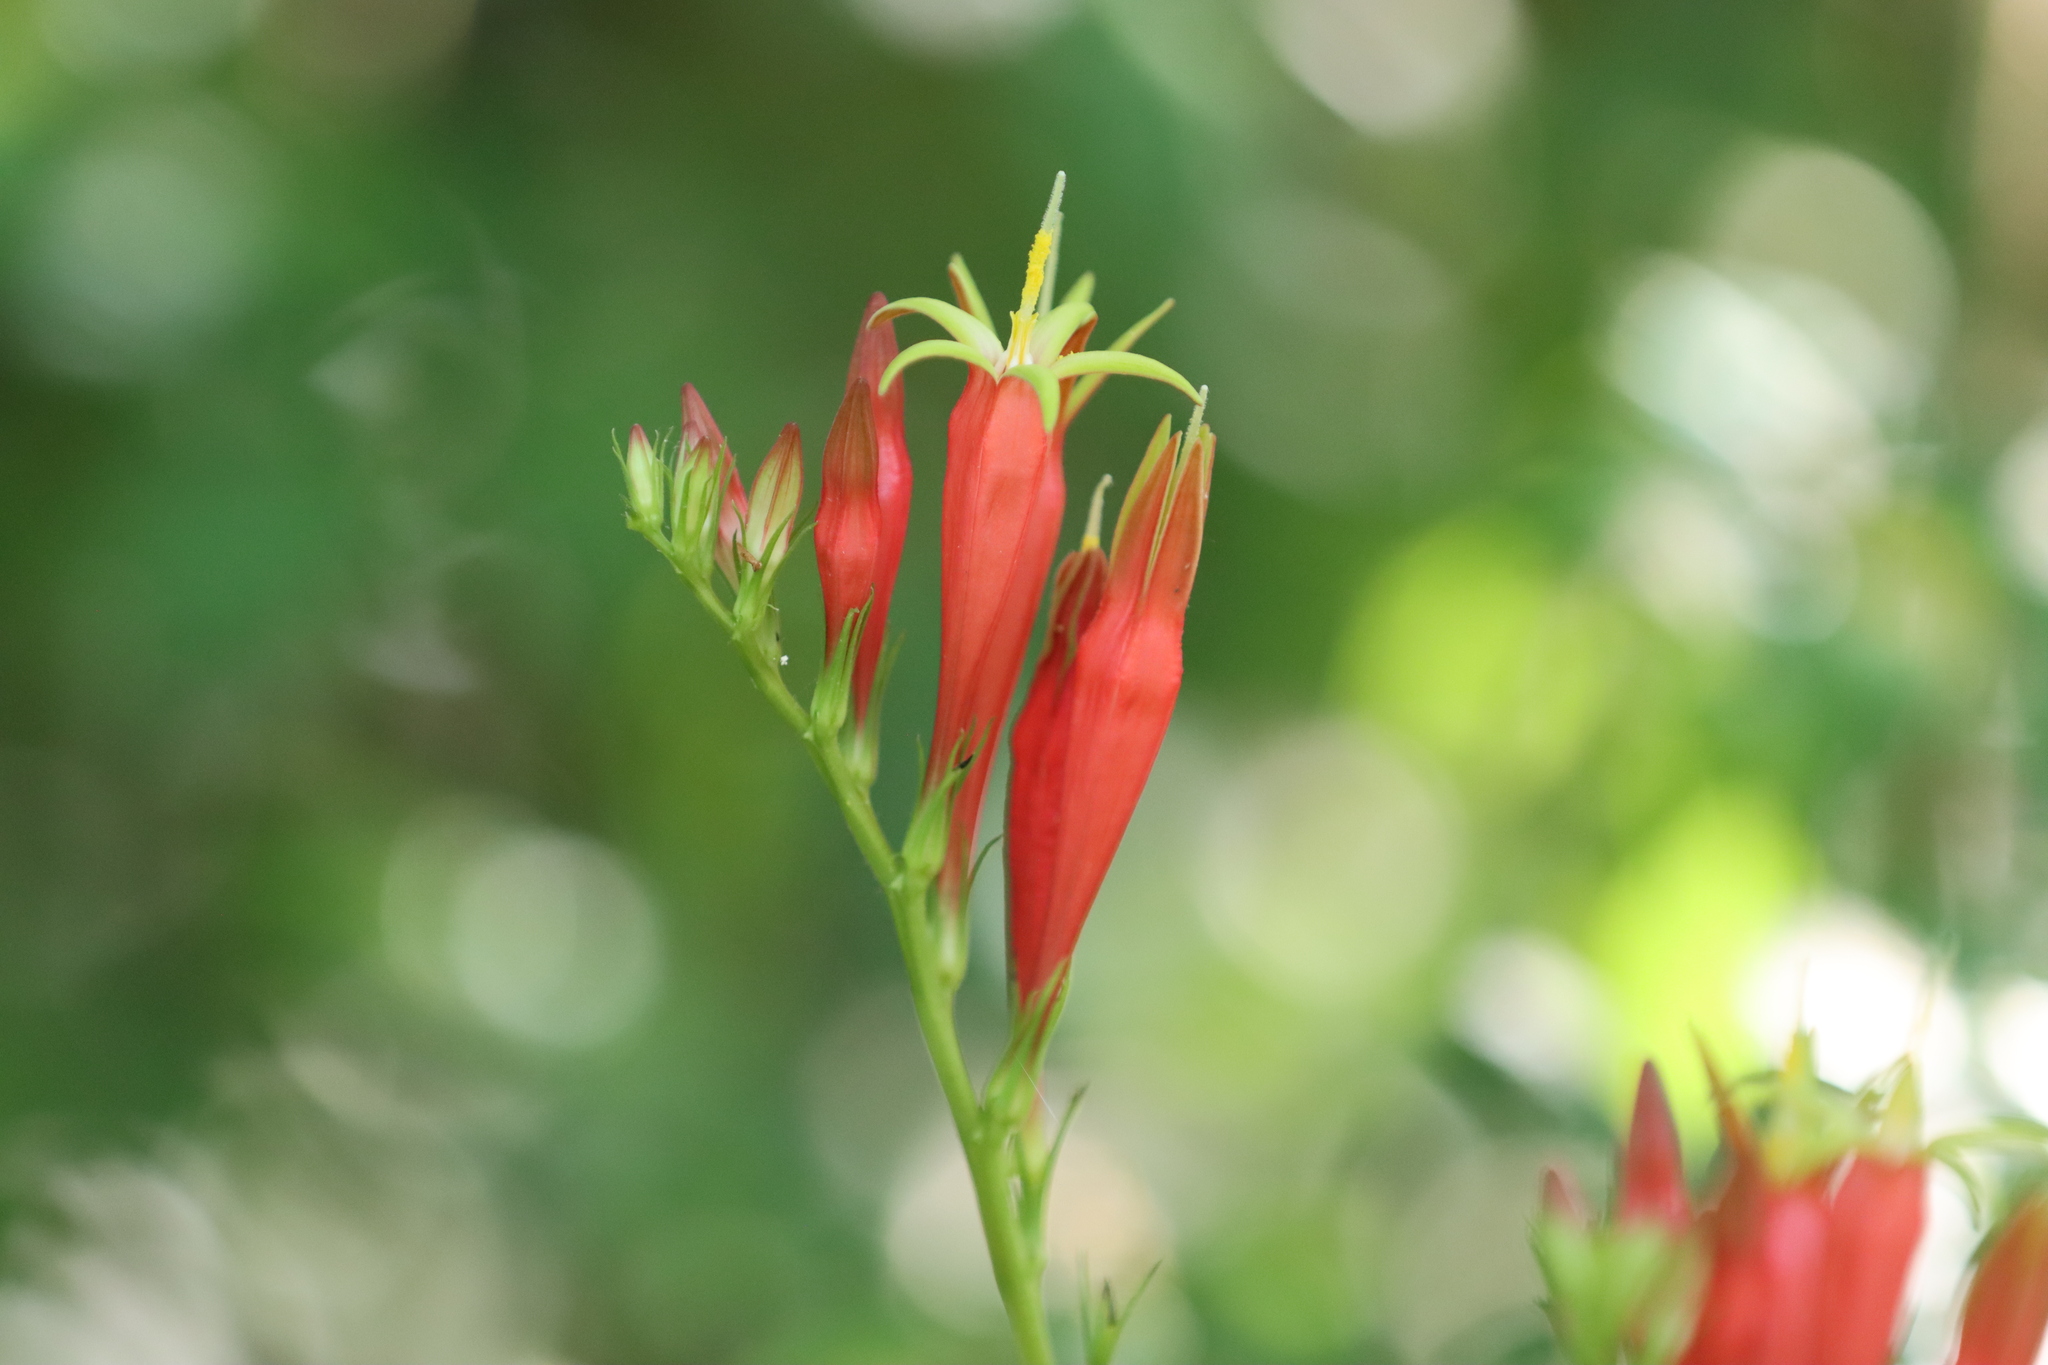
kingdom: Plantae
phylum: Tracheophyta
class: Magnoliopsida
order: Gentianales
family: Loganiaceae
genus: Spigelia
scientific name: Spigelia marilandica
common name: Indian-pink
